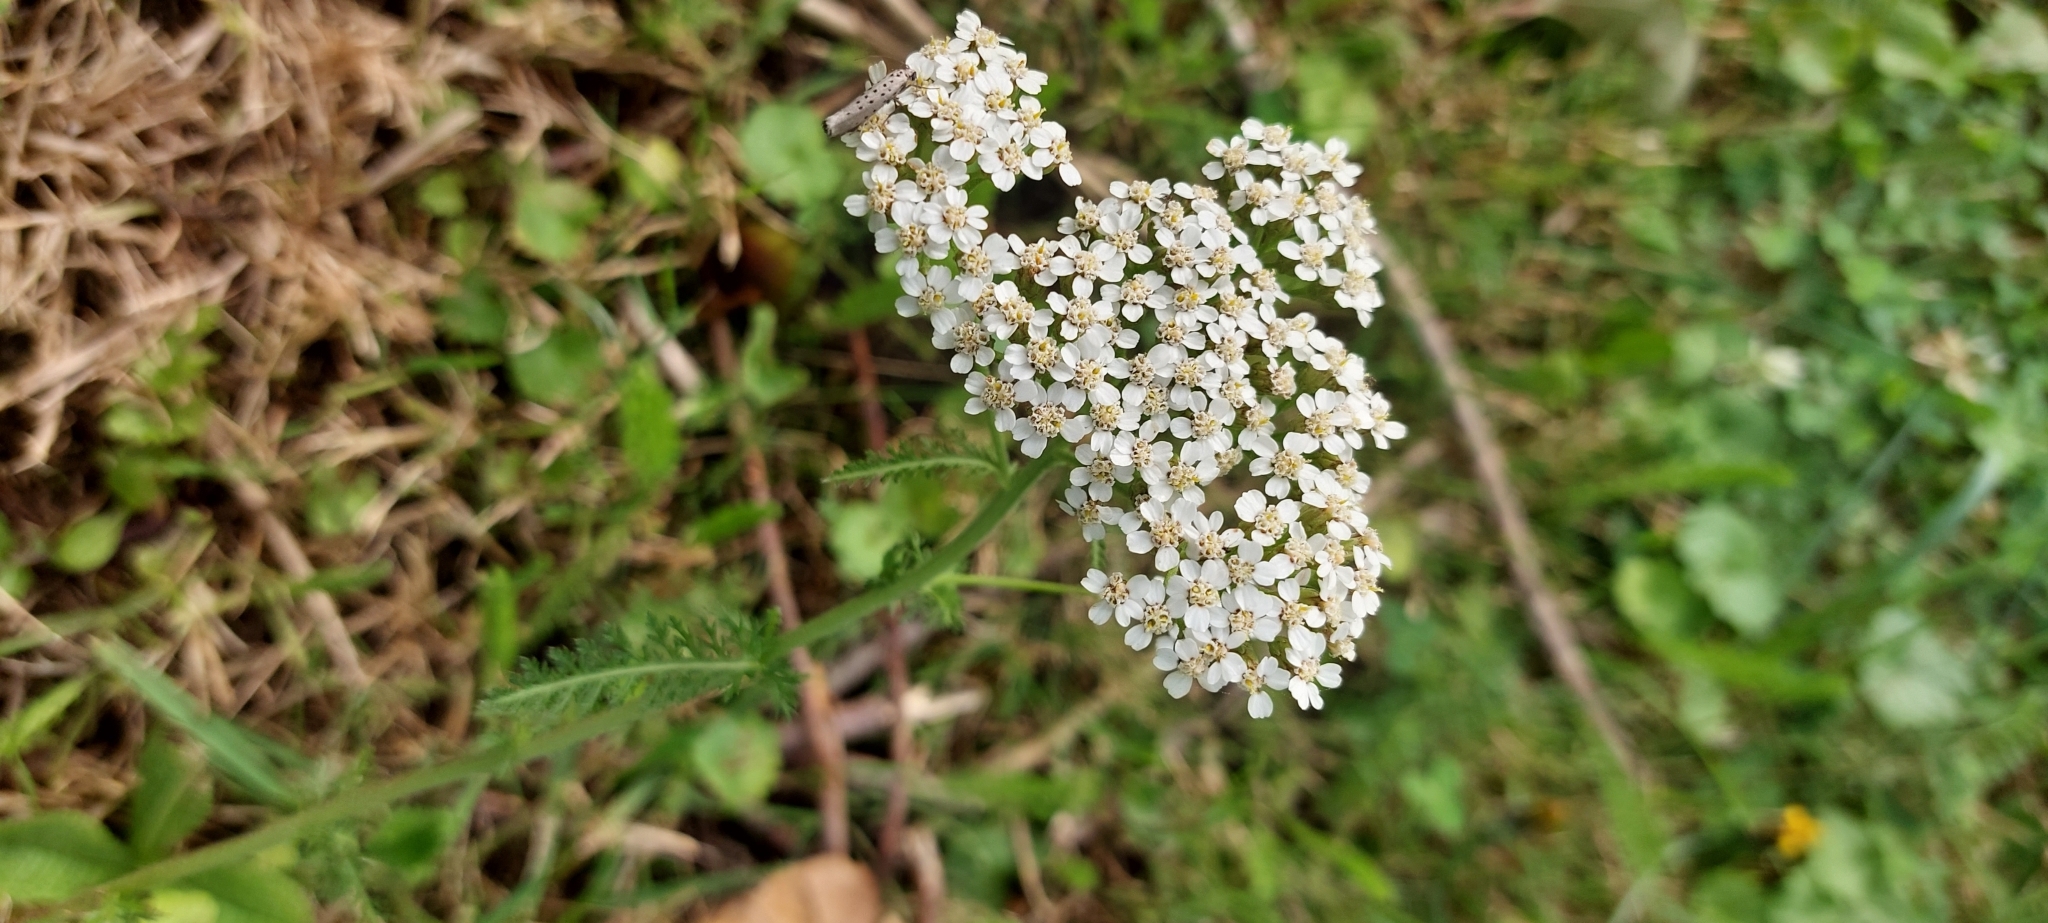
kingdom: Plantae
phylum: Tracheophyta
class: Magnoliopsida
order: Asterales
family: Asteraceae
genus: Achillea
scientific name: Achillea millefolium
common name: Yarrow
